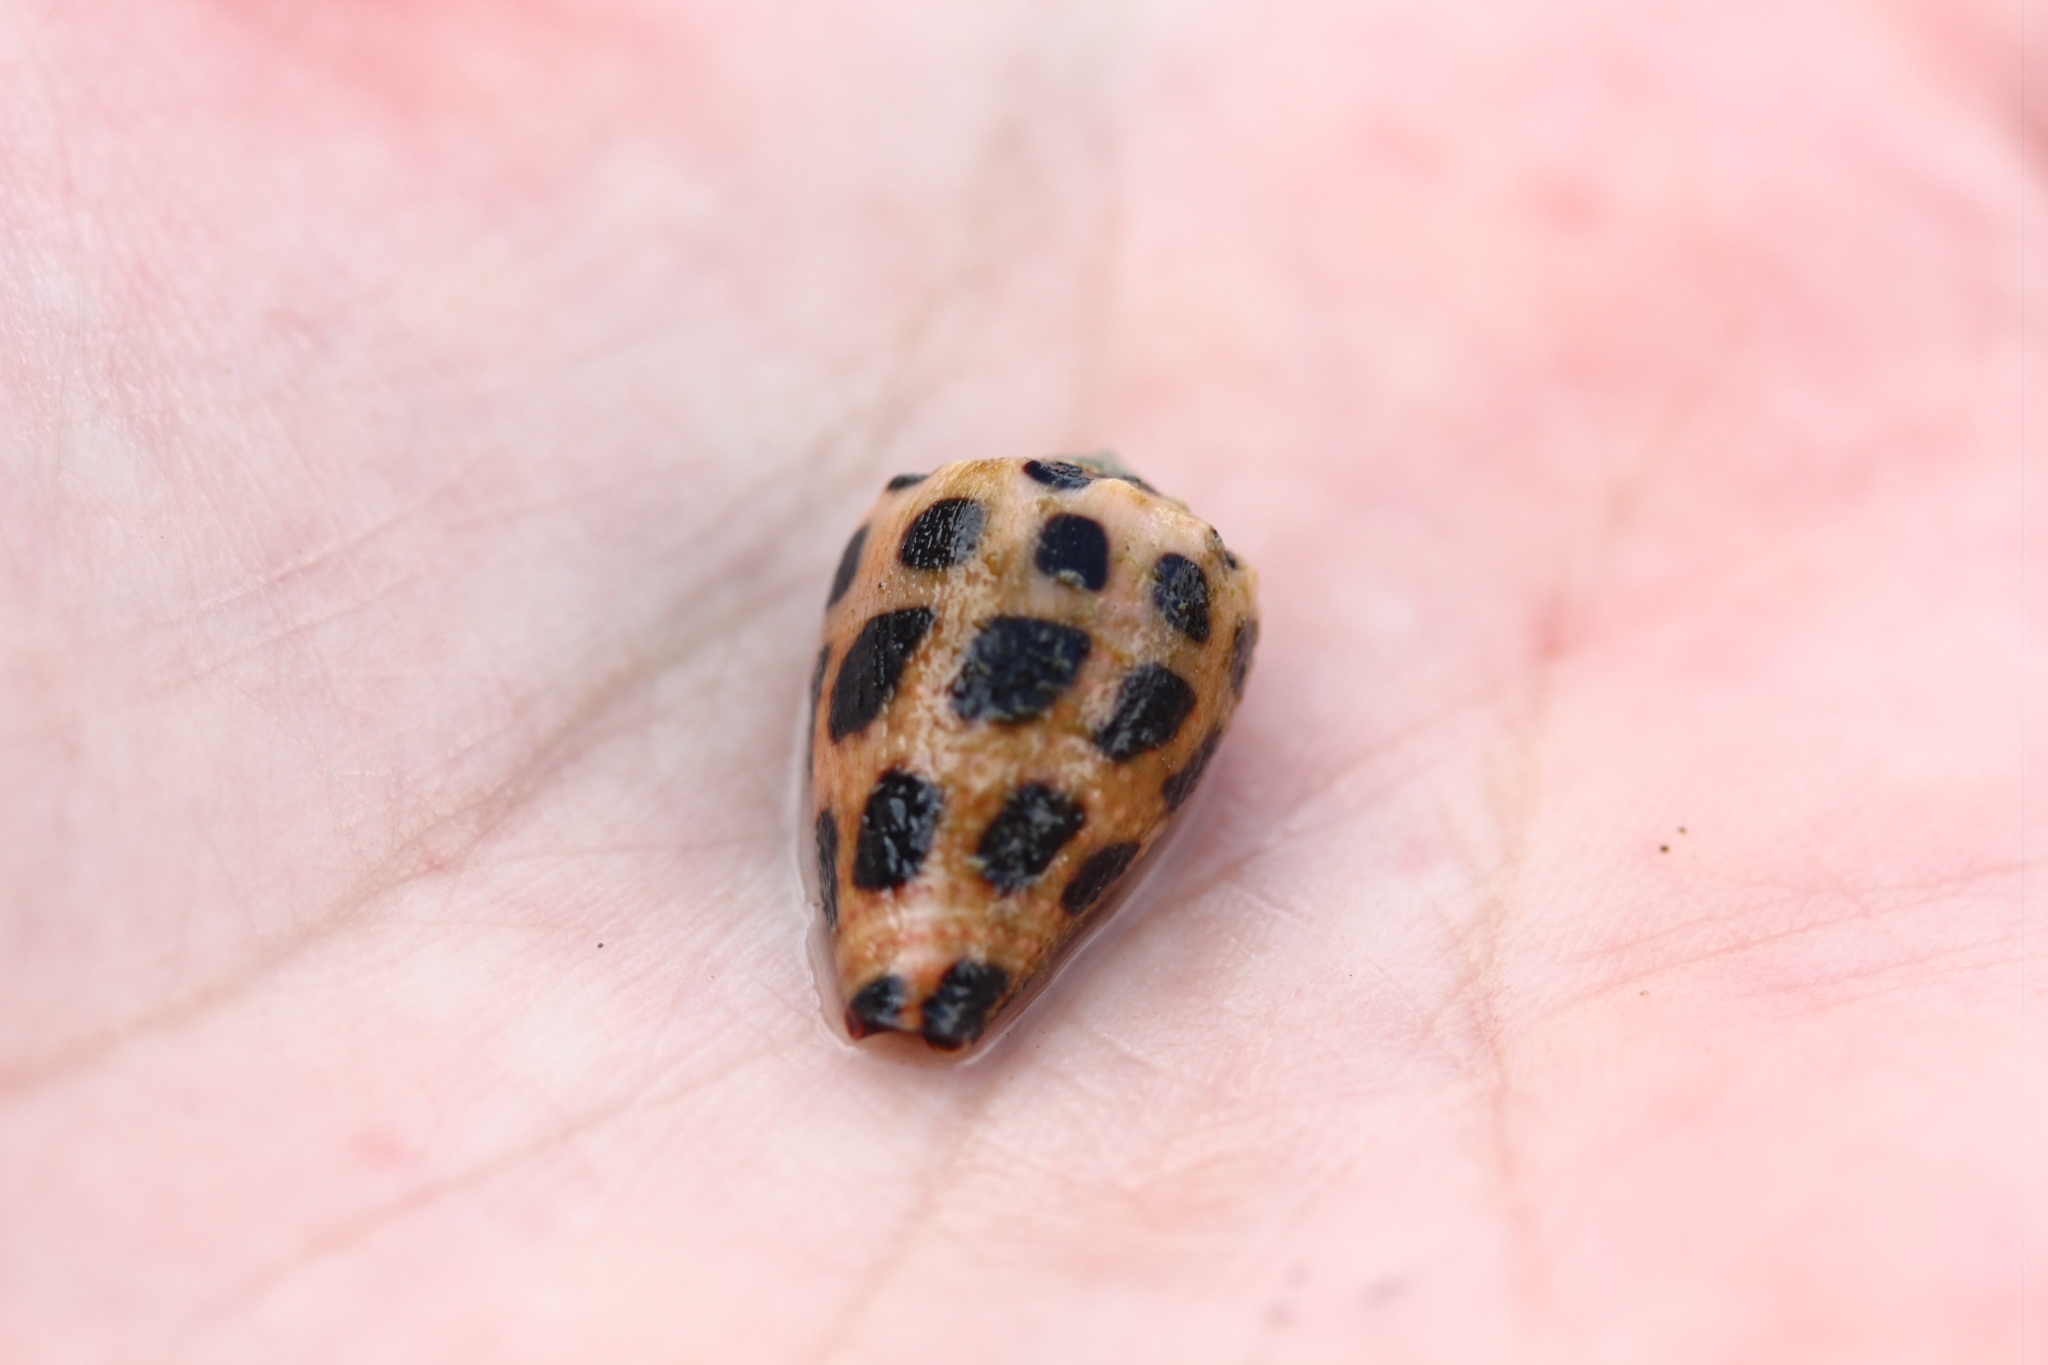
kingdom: Animalia
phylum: Mollusca
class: Gastropoda
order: Neogastropoda
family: Conidae
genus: Conus
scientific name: Conus ebraeus
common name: Hebrew cone
